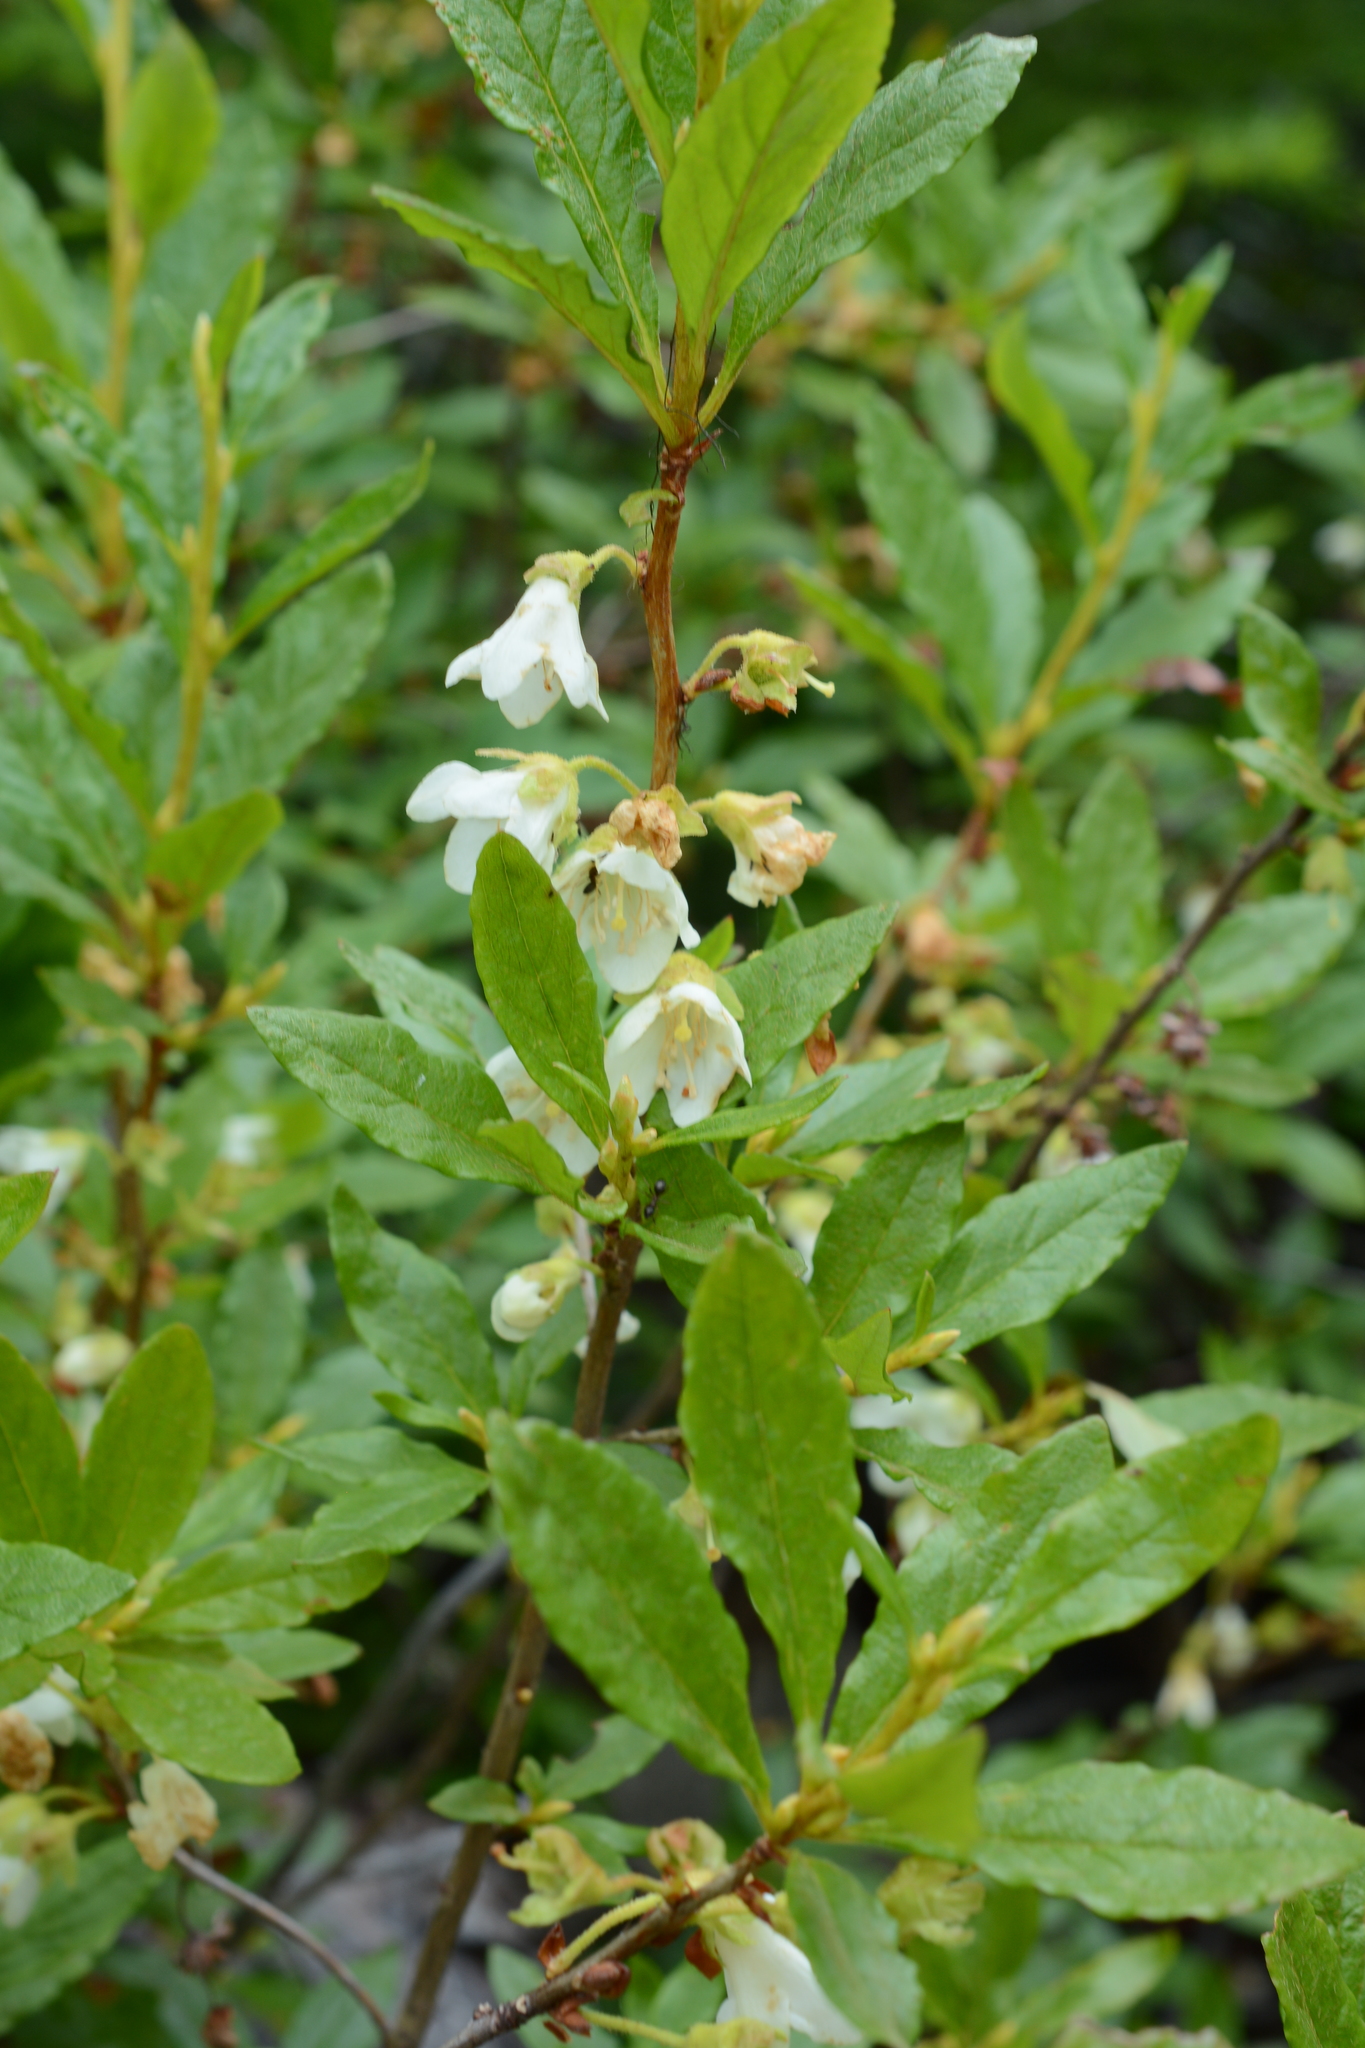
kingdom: Plantae
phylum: Tracheophyta
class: Magnoliopsida
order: Ericales
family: Ericaceae
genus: Rhododendron
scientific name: Rhododendron albiflorum
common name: White rhododendron
